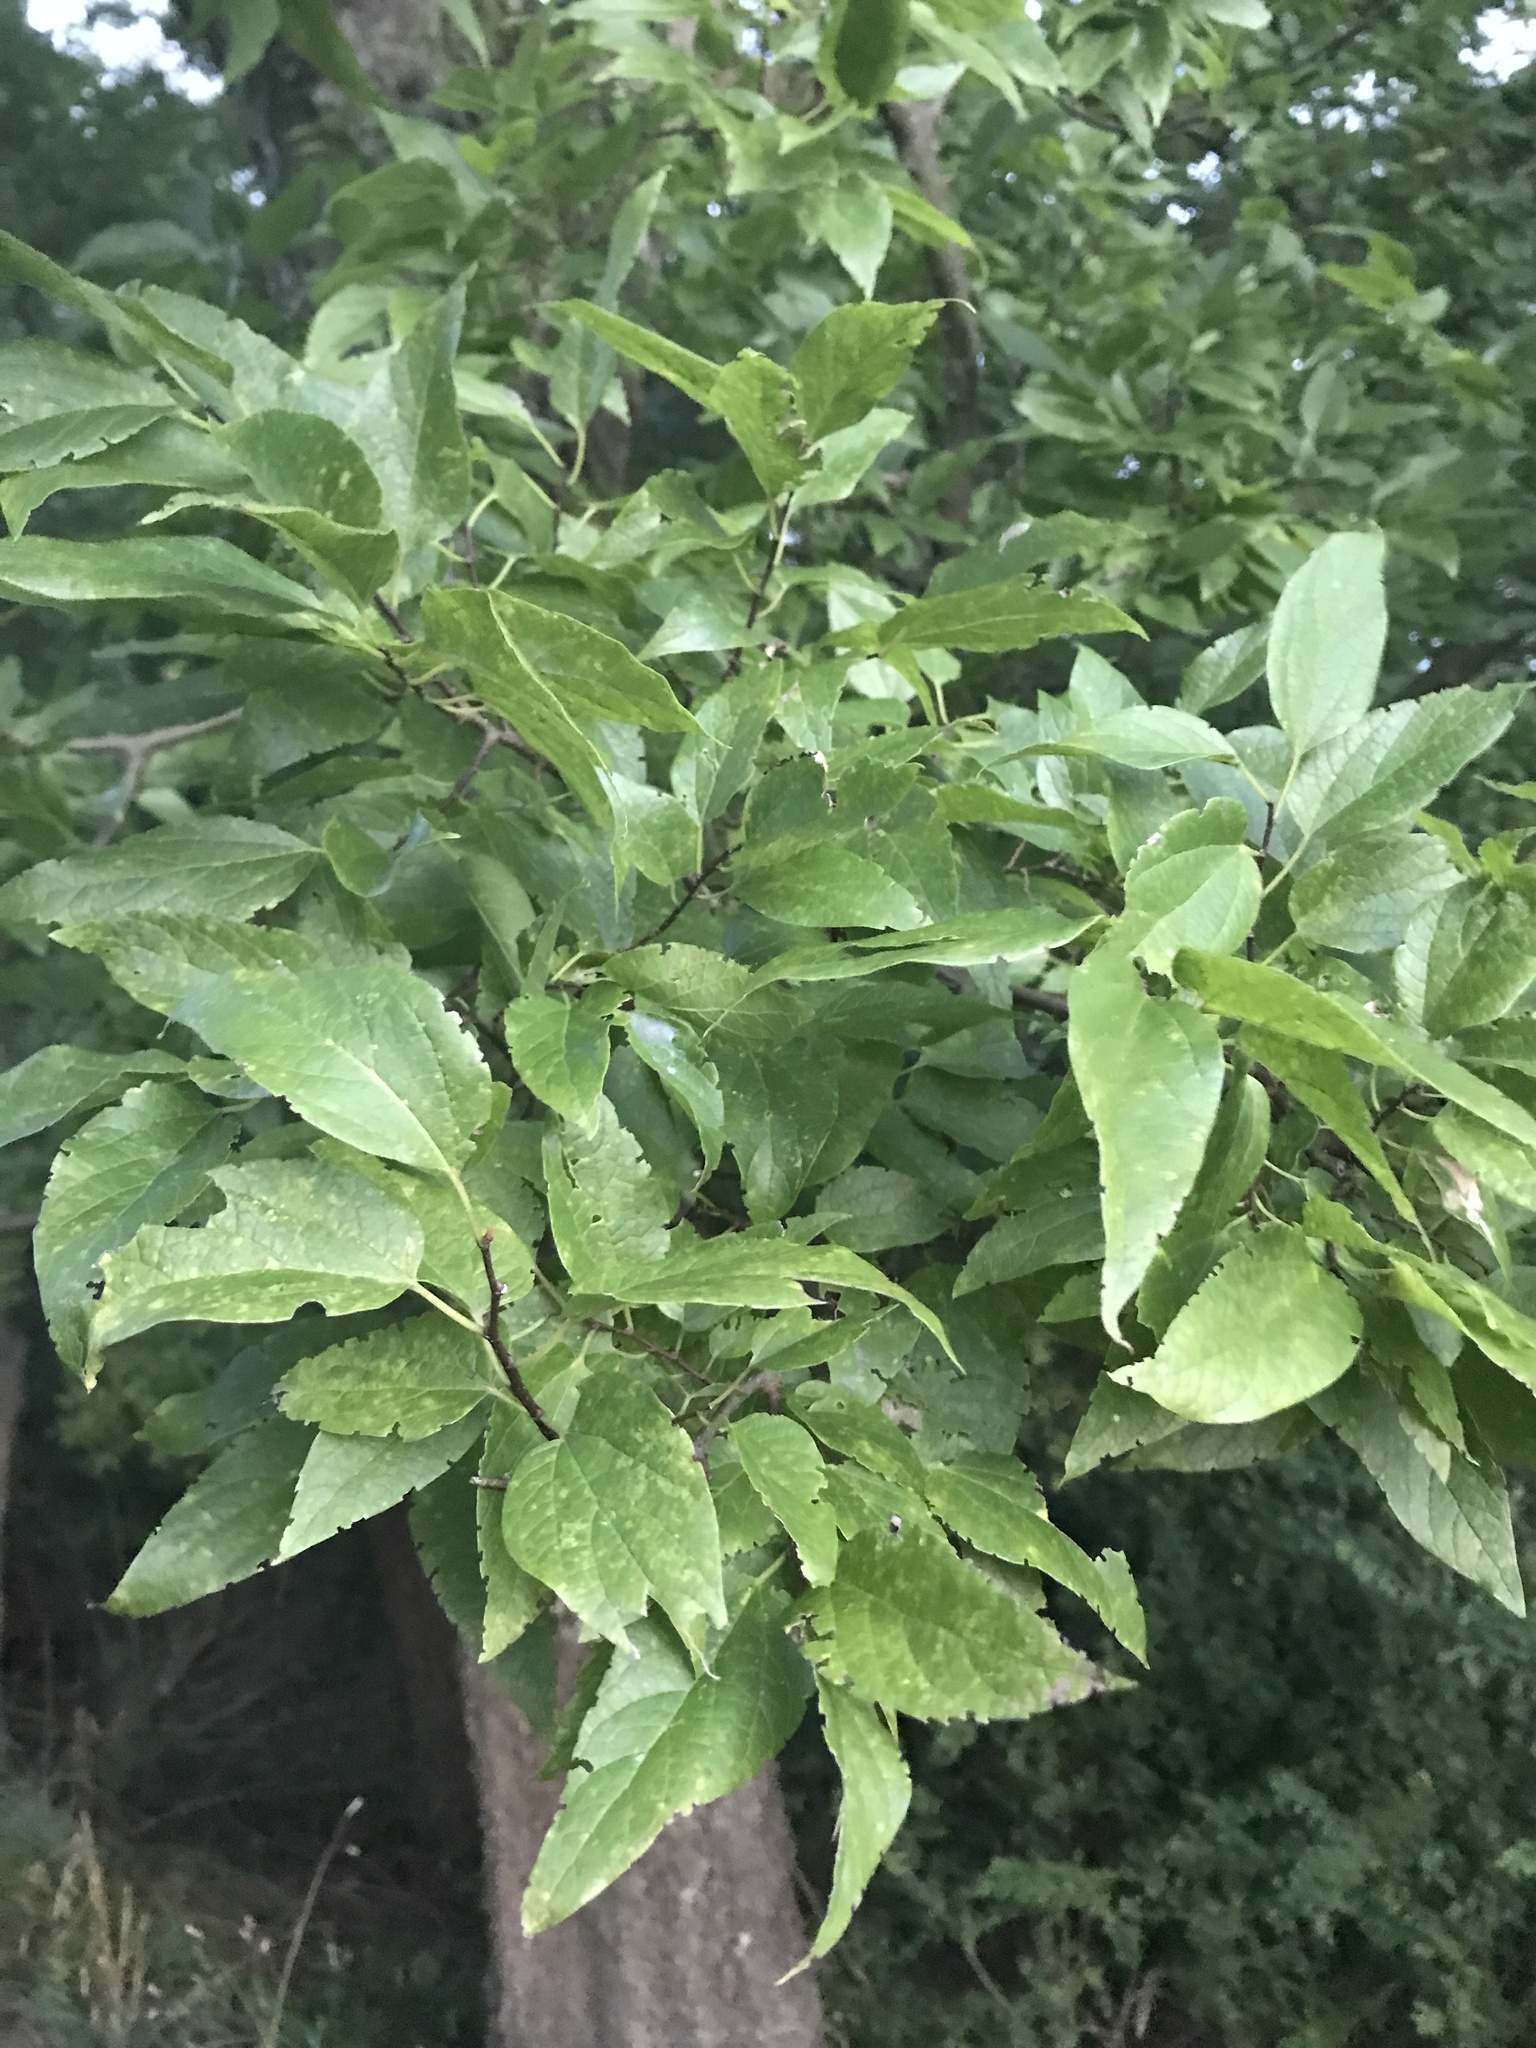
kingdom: Plantae
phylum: Tracheophyta
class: Magnoliopsida
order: Rosales
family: Cannabaceae
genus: Celtis
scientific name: Celtis laevigata
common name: Sugarberry
